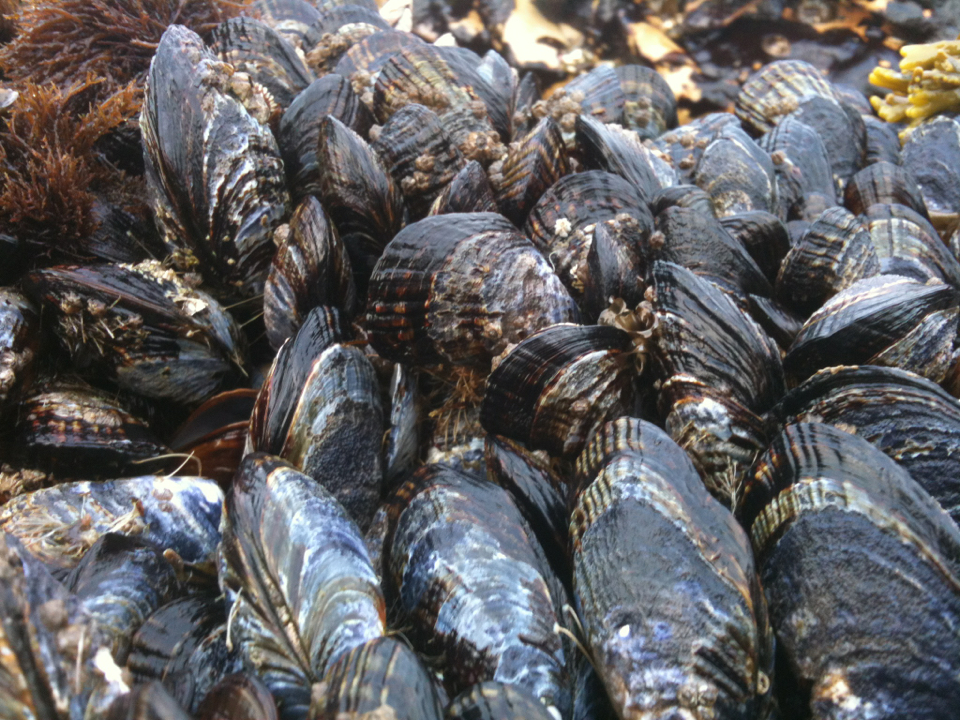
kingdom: Animalia
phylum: Mollusca
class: Bivalvia
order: Mytilida
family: Mytilidae
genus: Mytilus
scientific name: Mytilus californianus
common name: California mussel
